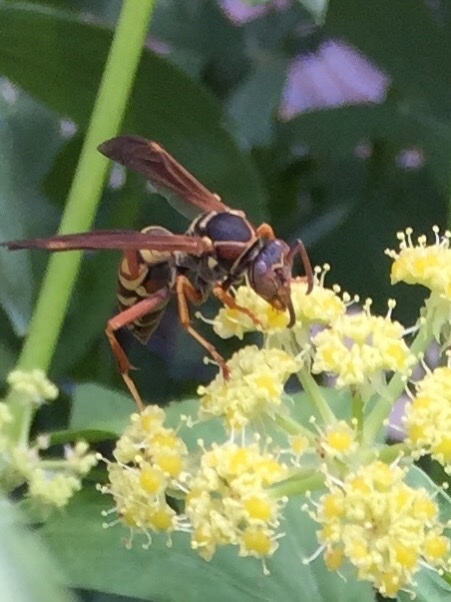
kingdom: Animalia
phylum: Arthropoda
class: Insecta
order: Hymenoptera
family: Eumenidae
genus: Polistes
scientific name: Polistes fuscatus
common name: Dark paper wasp
